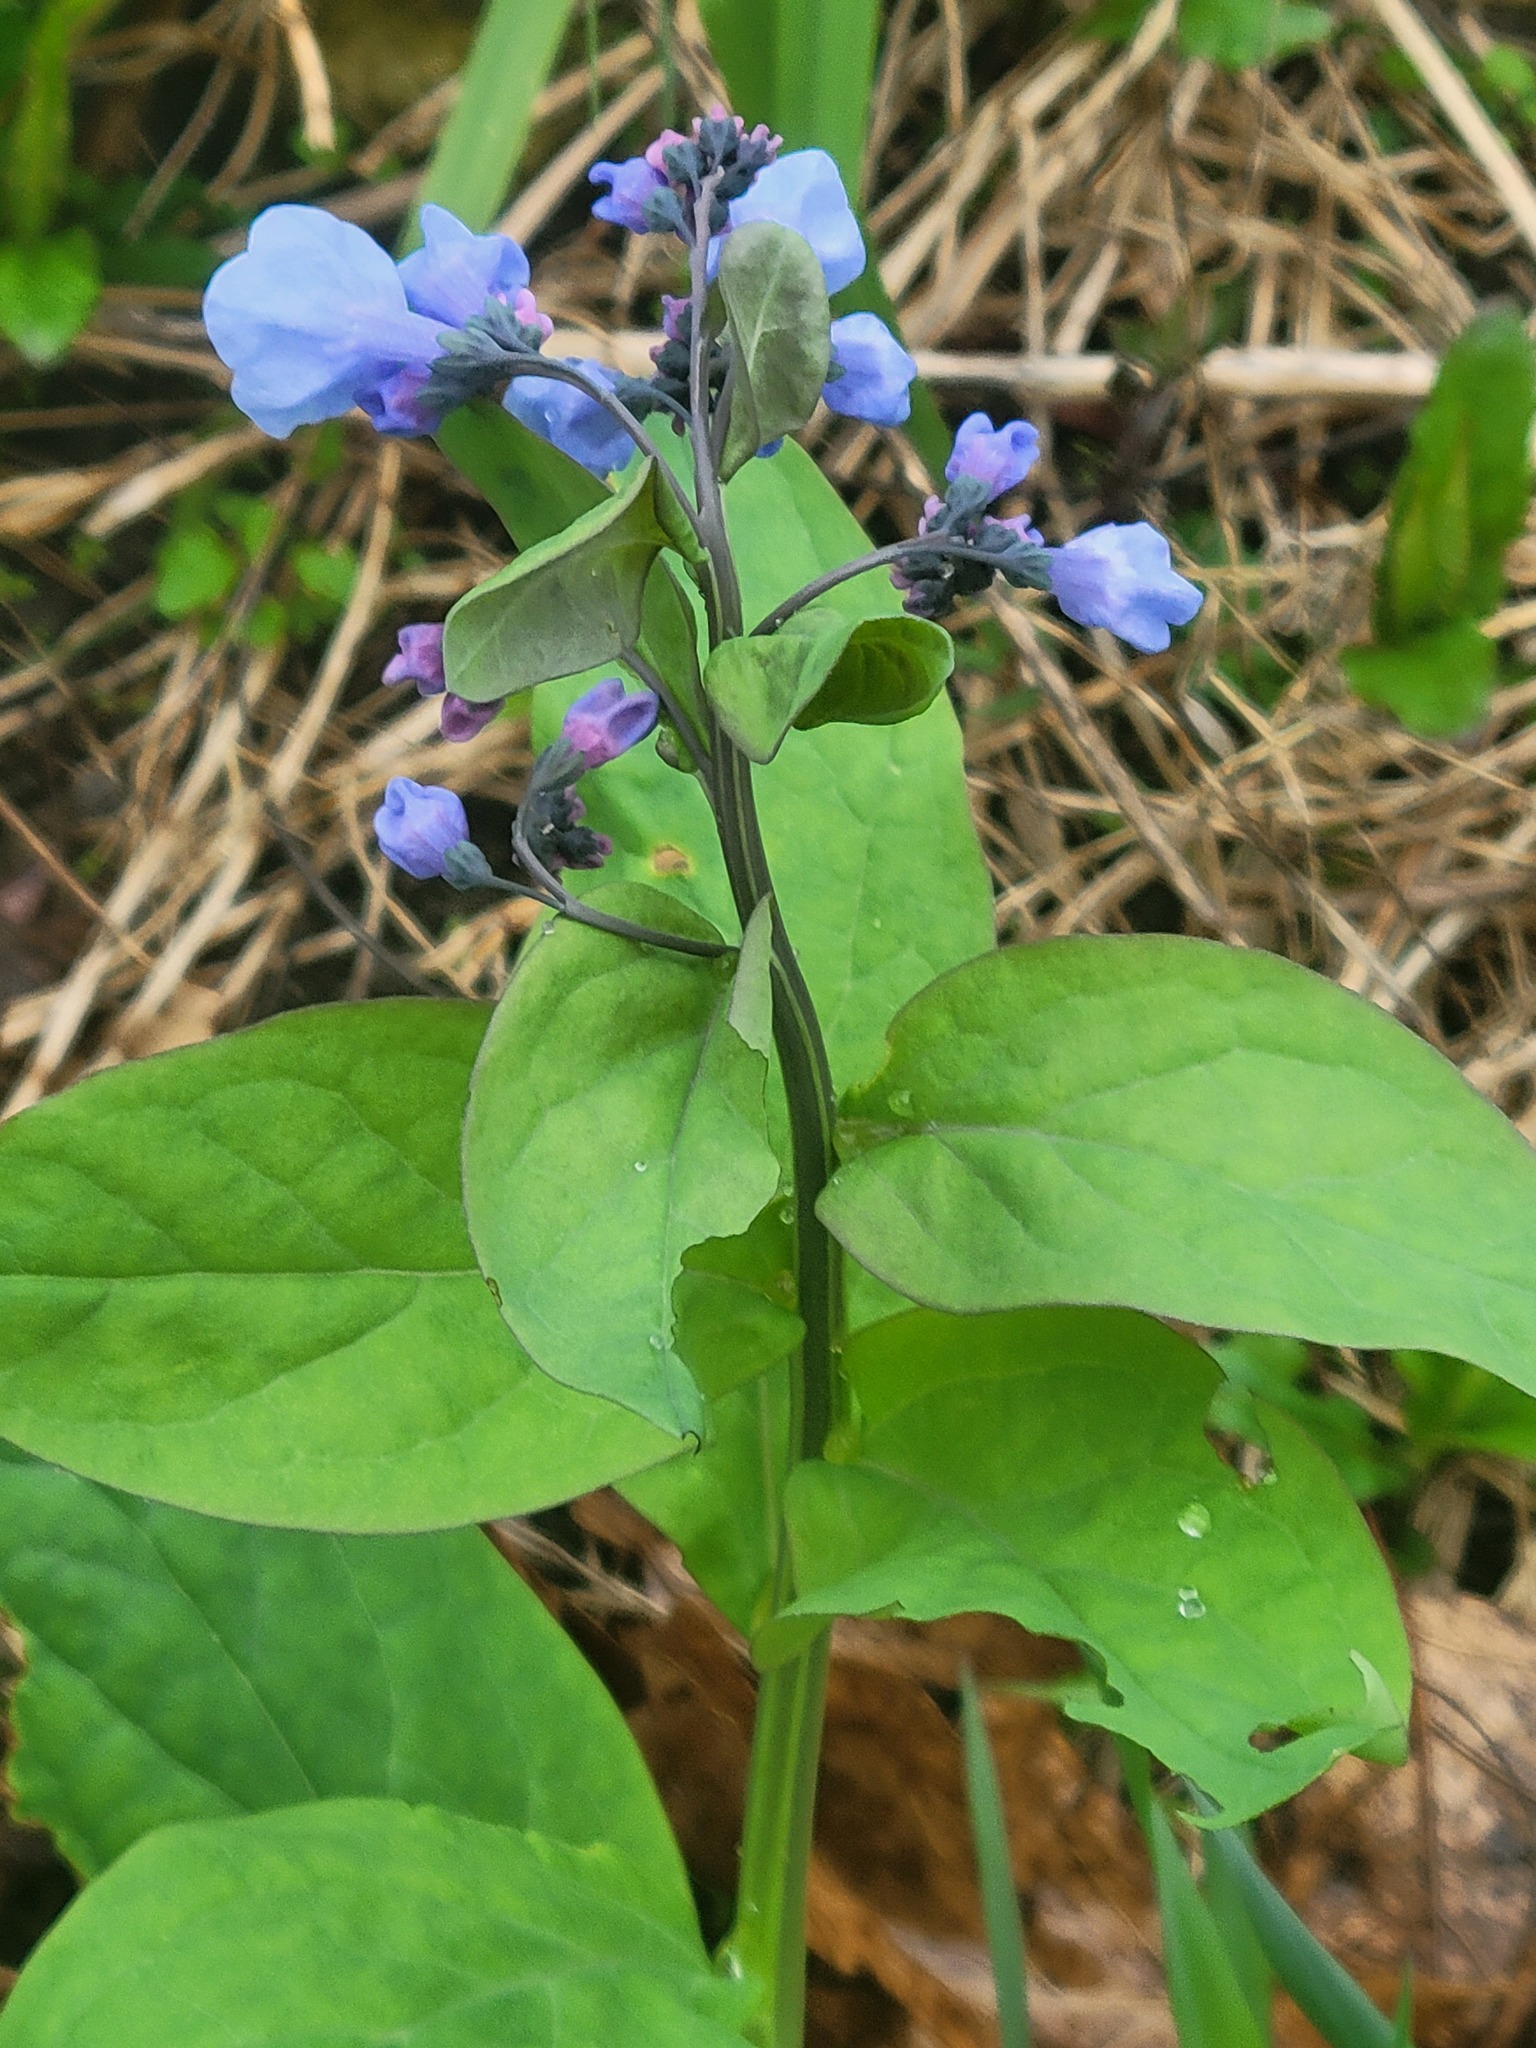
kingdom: Plantae
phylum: Tracheophyta
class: Magnoliopsida
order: Boraginales
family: Boraginaceae
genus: Mertensia
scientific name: Mertensia virginica
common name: Virginia bluebells
